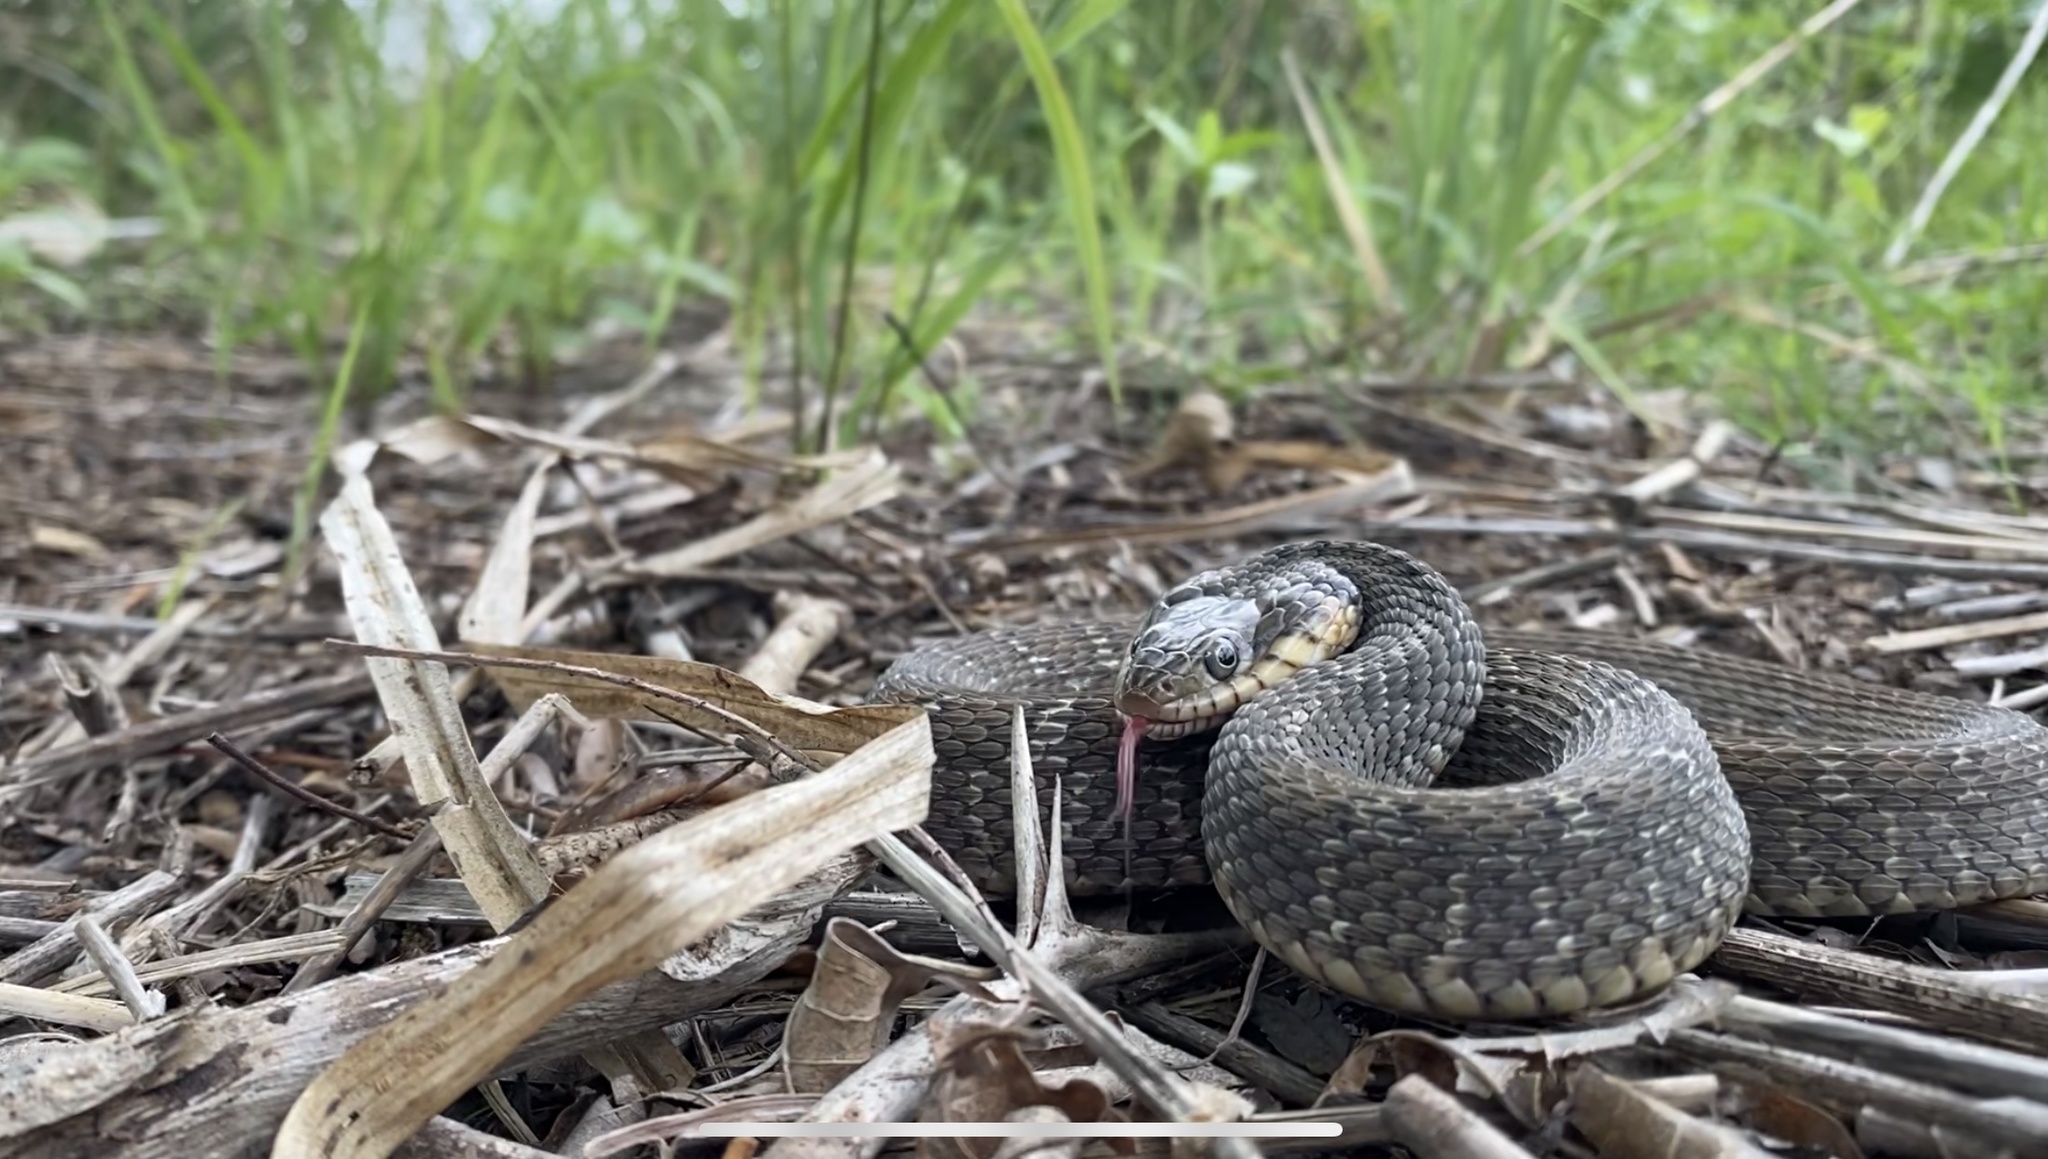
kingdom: Animalia
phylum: Chordata
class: Squamata
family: Colubridae
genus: Nerodia
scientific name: Nerodia erythrogaster
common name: Plainbelly water snake
